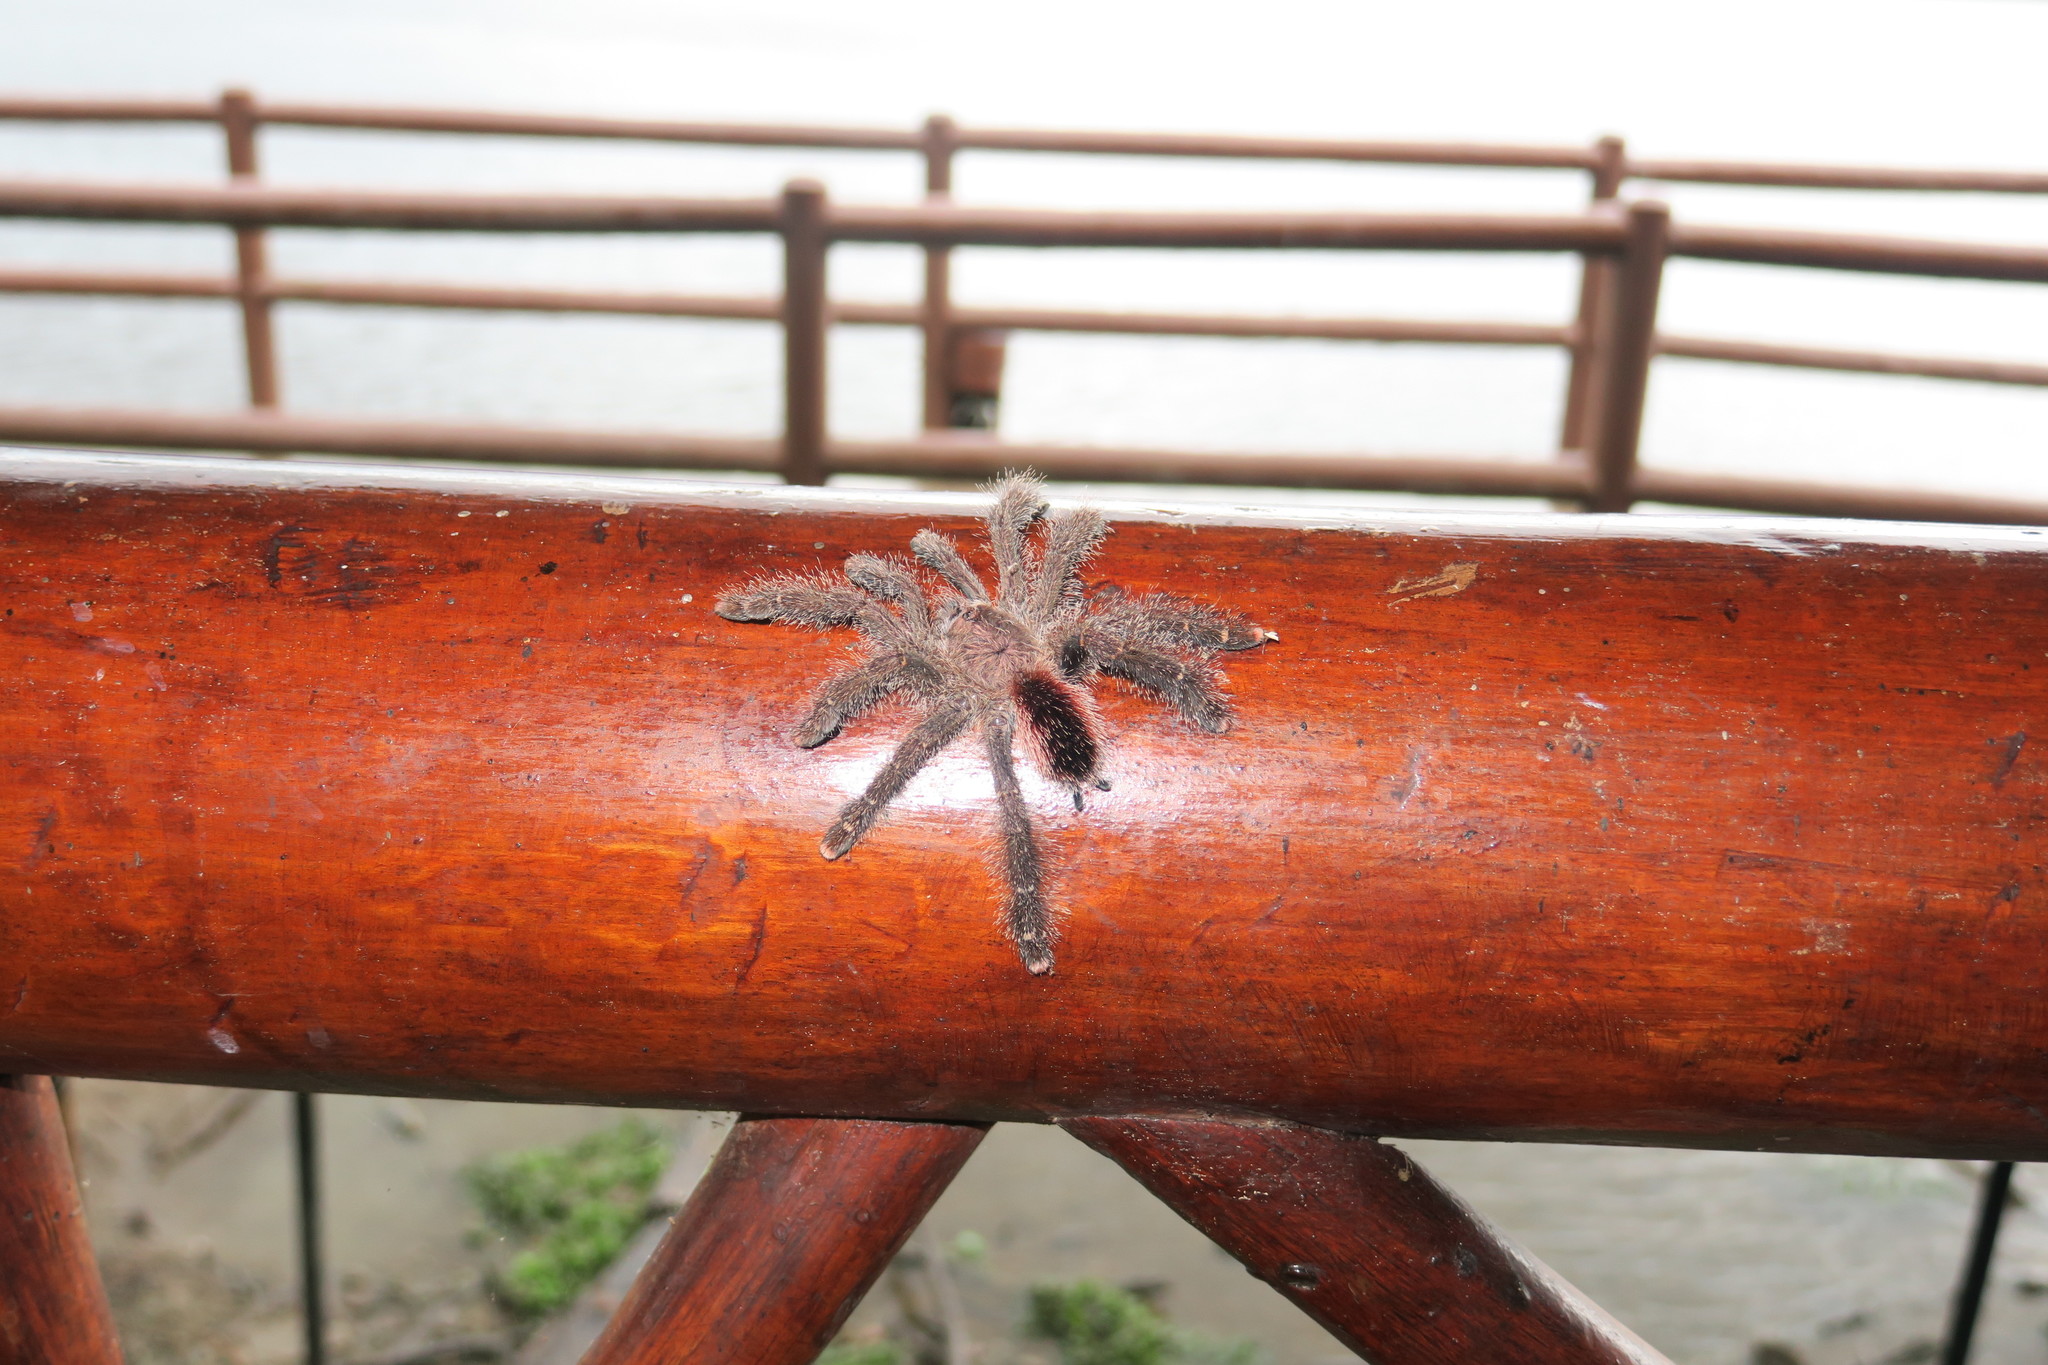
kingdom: Animalia
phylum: Arthropoda
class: Arachnida
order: Araneae
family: Theraphosidae
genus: Avicularia
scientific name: Avicularia juruensis
